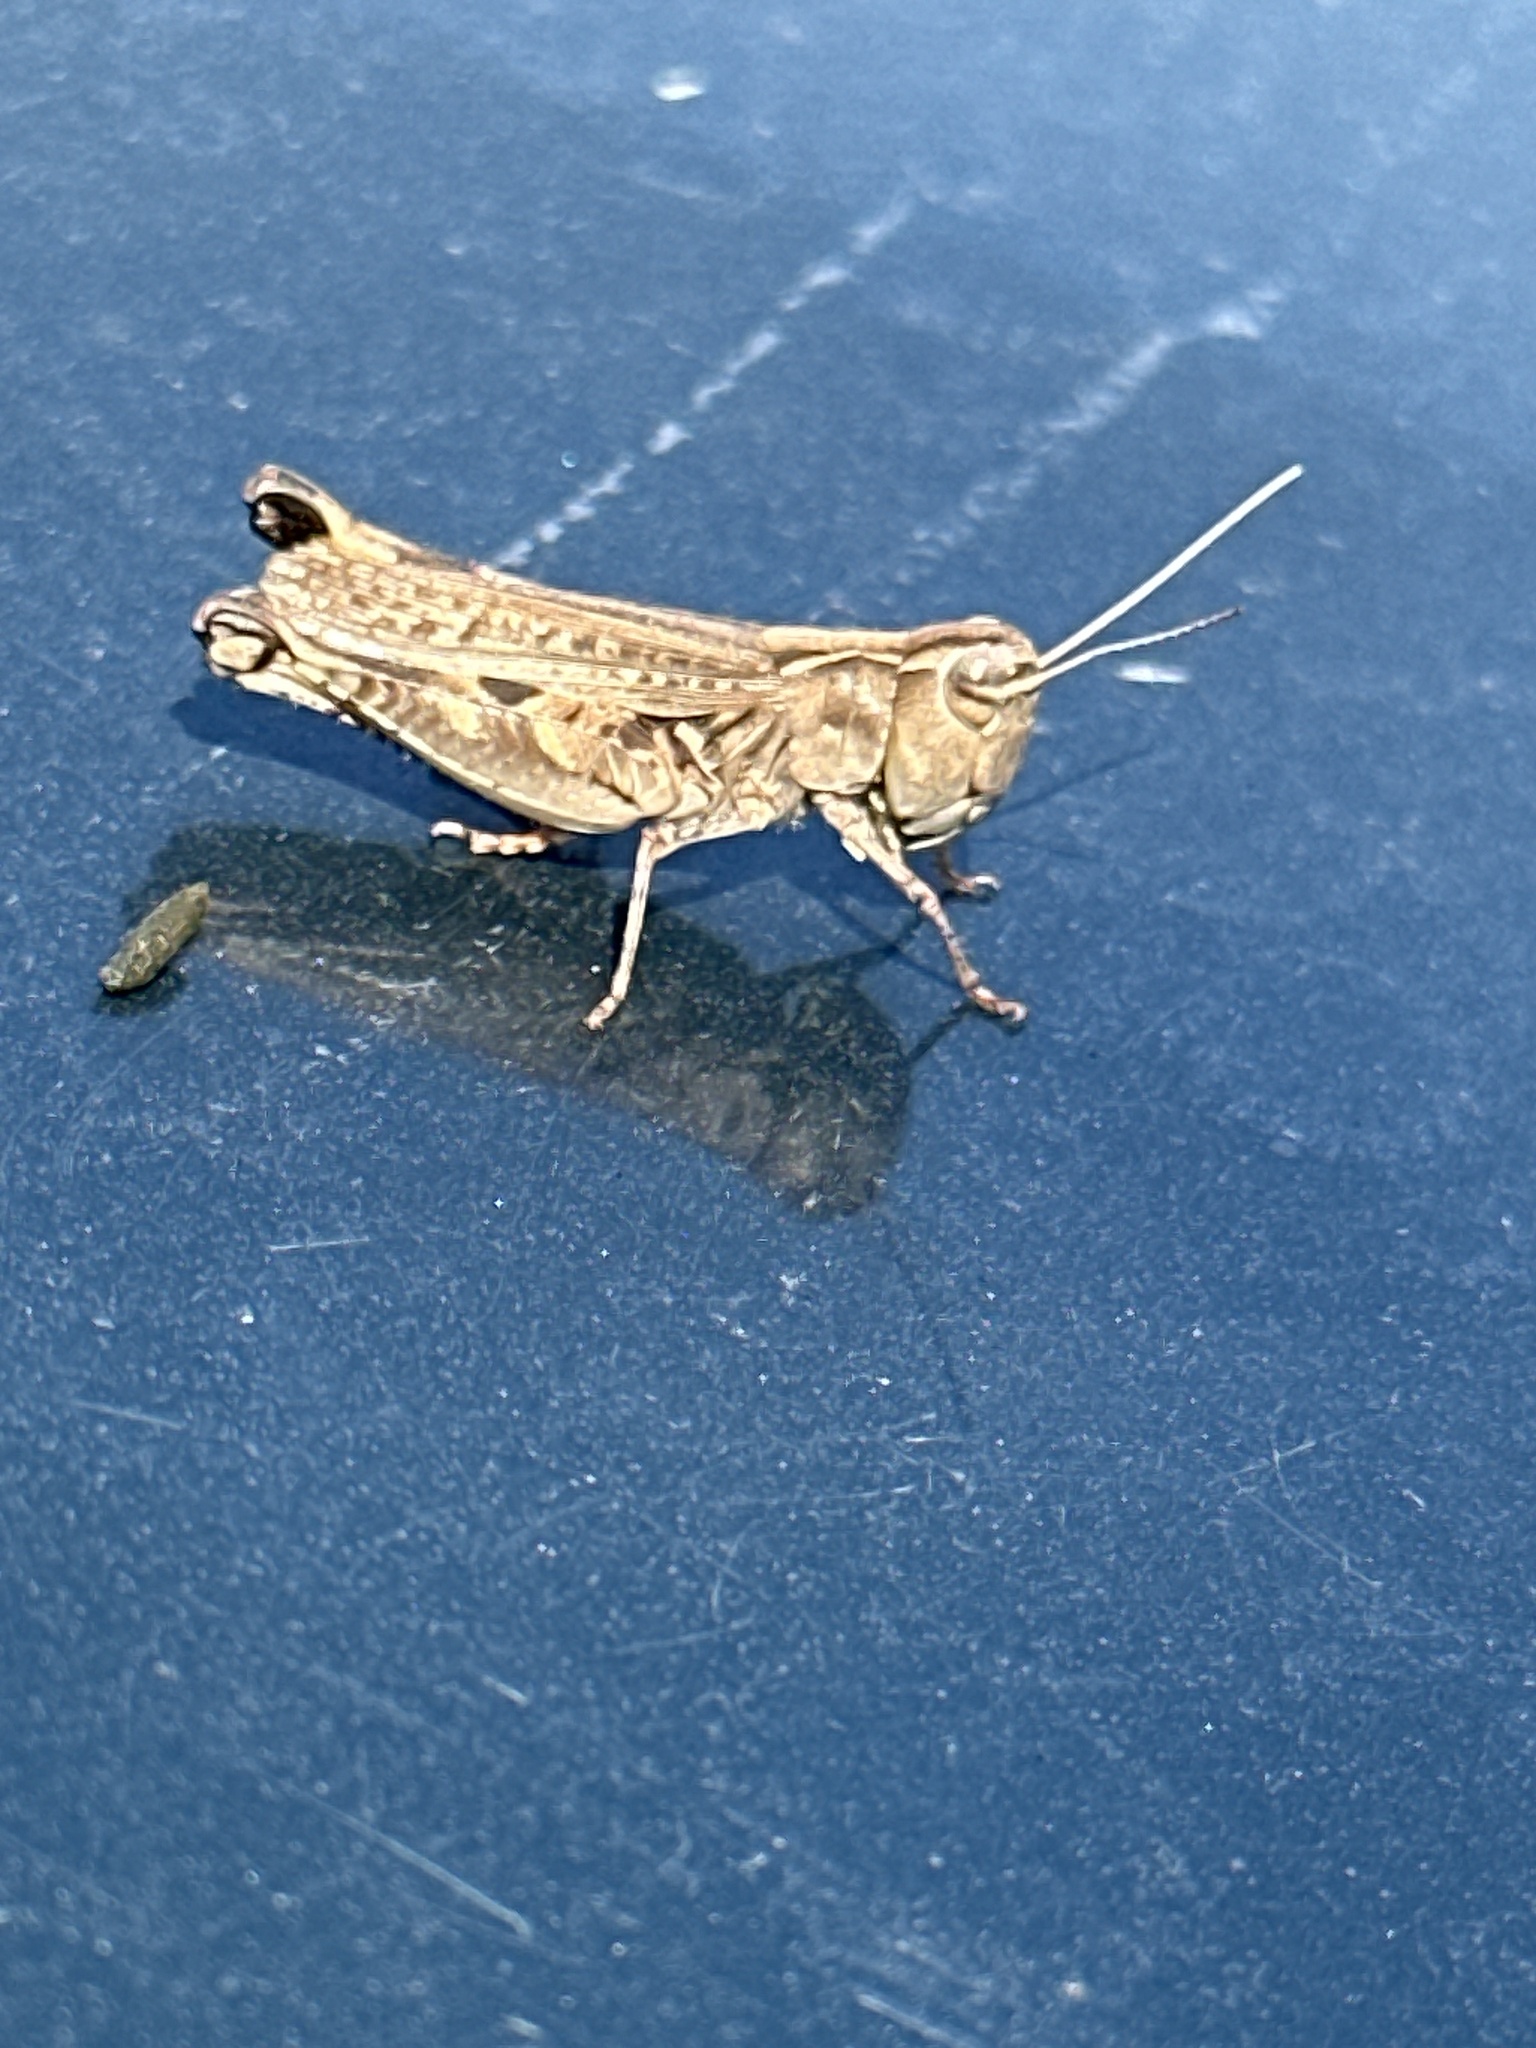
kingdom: Animalia
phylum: Arthropoda
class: Insecta
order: Orthoptera
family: Acrididae
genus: Ageneotettix
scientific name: Ageneotettix deorum
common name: White-whiskered grasshopper
